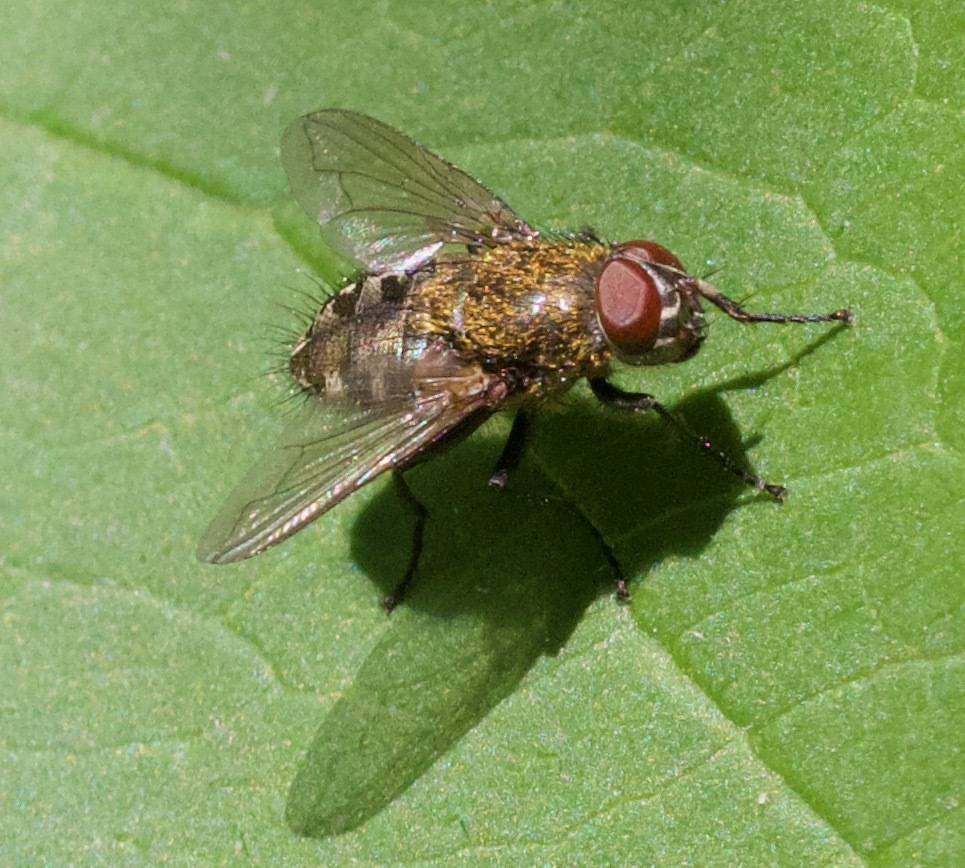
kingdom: Animalia
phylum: Arthropoda
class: Insecta
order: Diptera
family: Polleniidae
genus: Pollenia
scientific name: Pollenia
